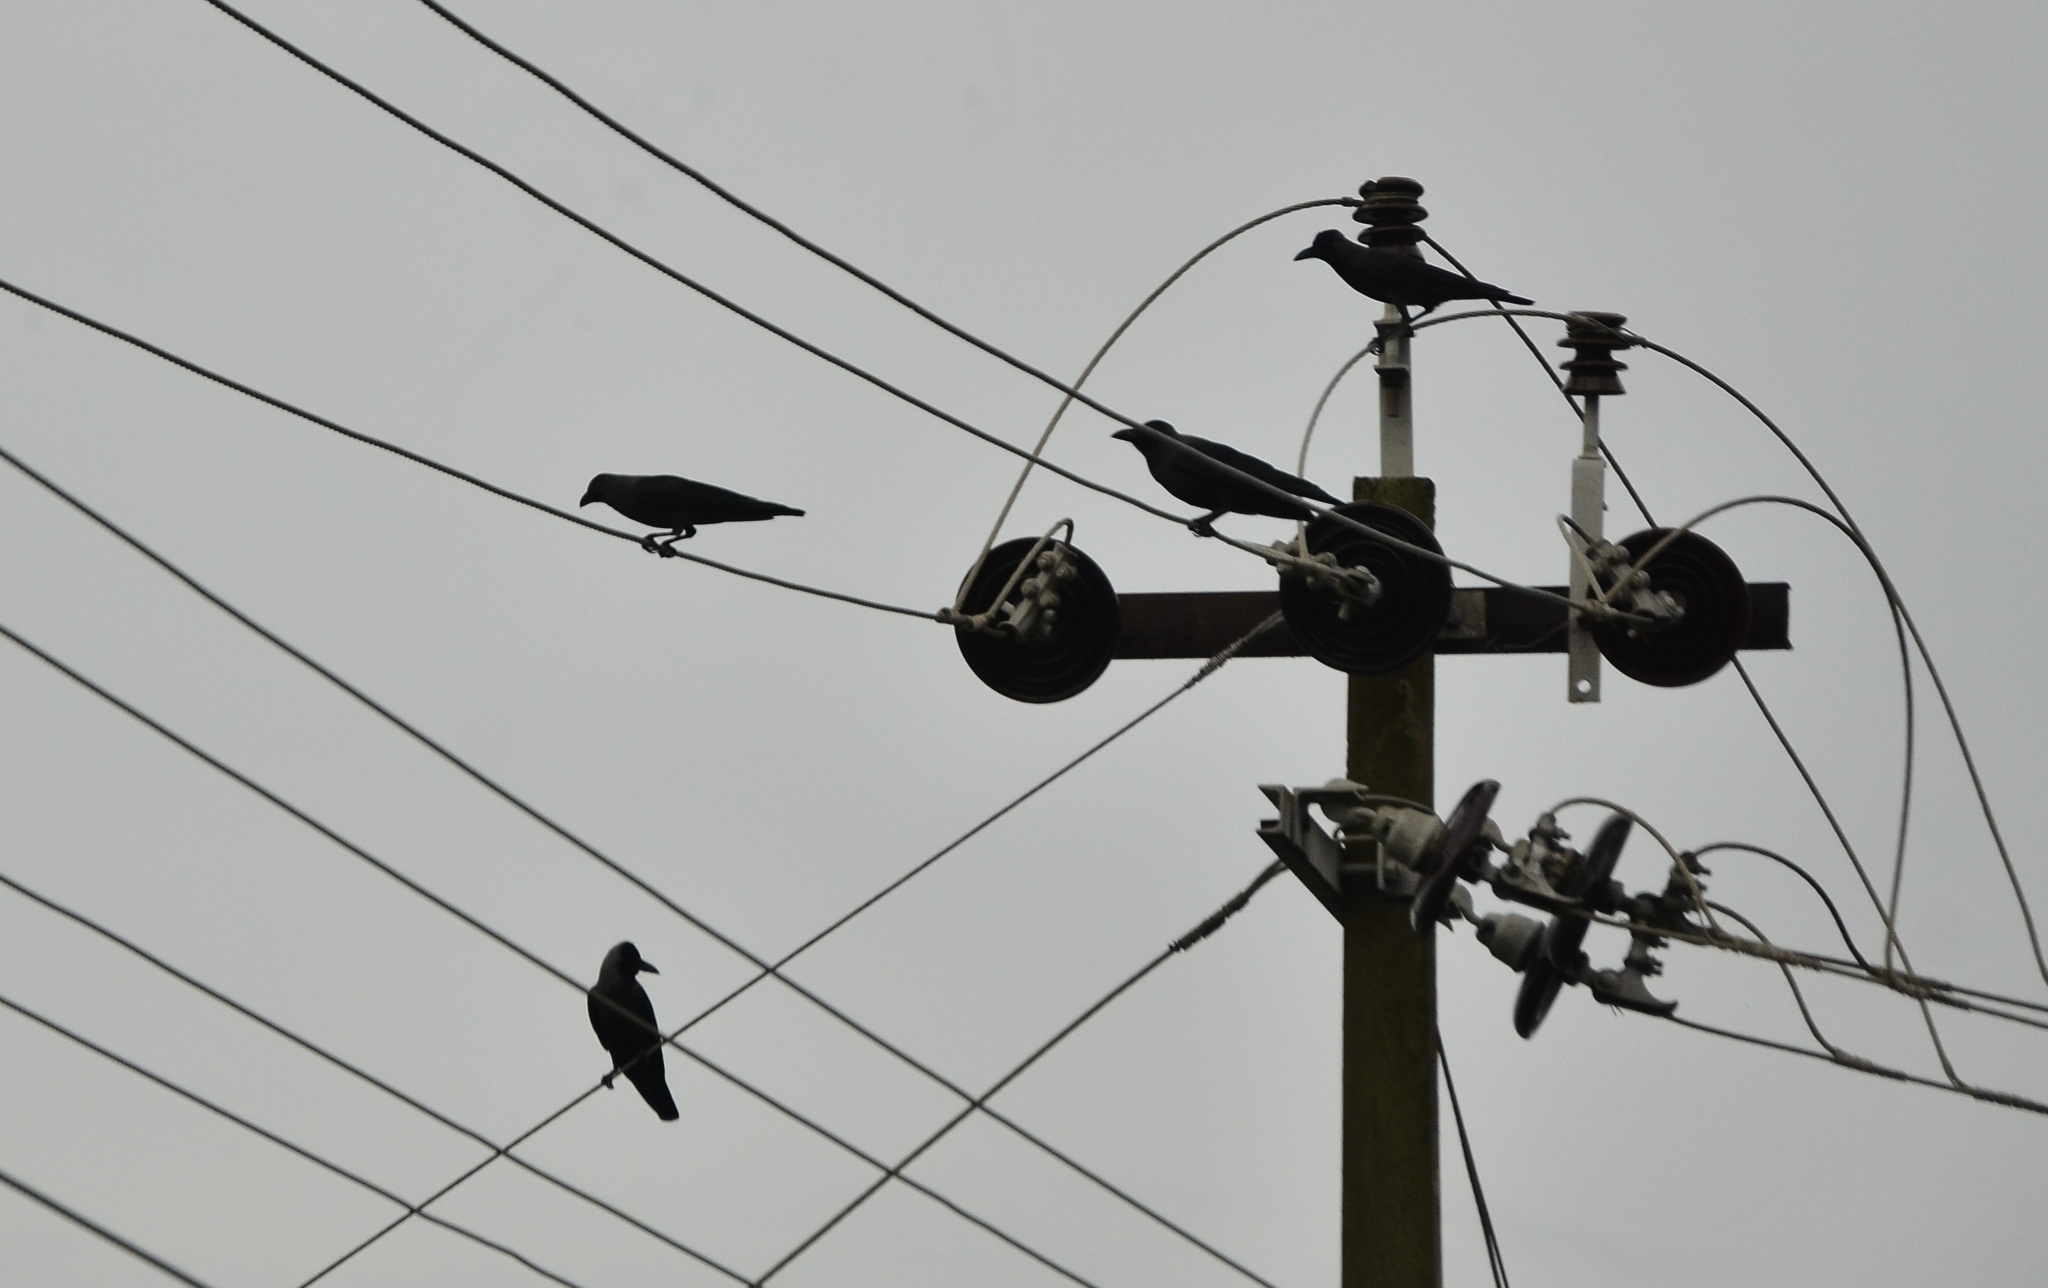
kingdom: Animalia
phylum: Chordata
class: Aves
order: Passeriformes
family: Corvidae
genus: Corvus
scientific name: Corvus splendens
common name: House crow
